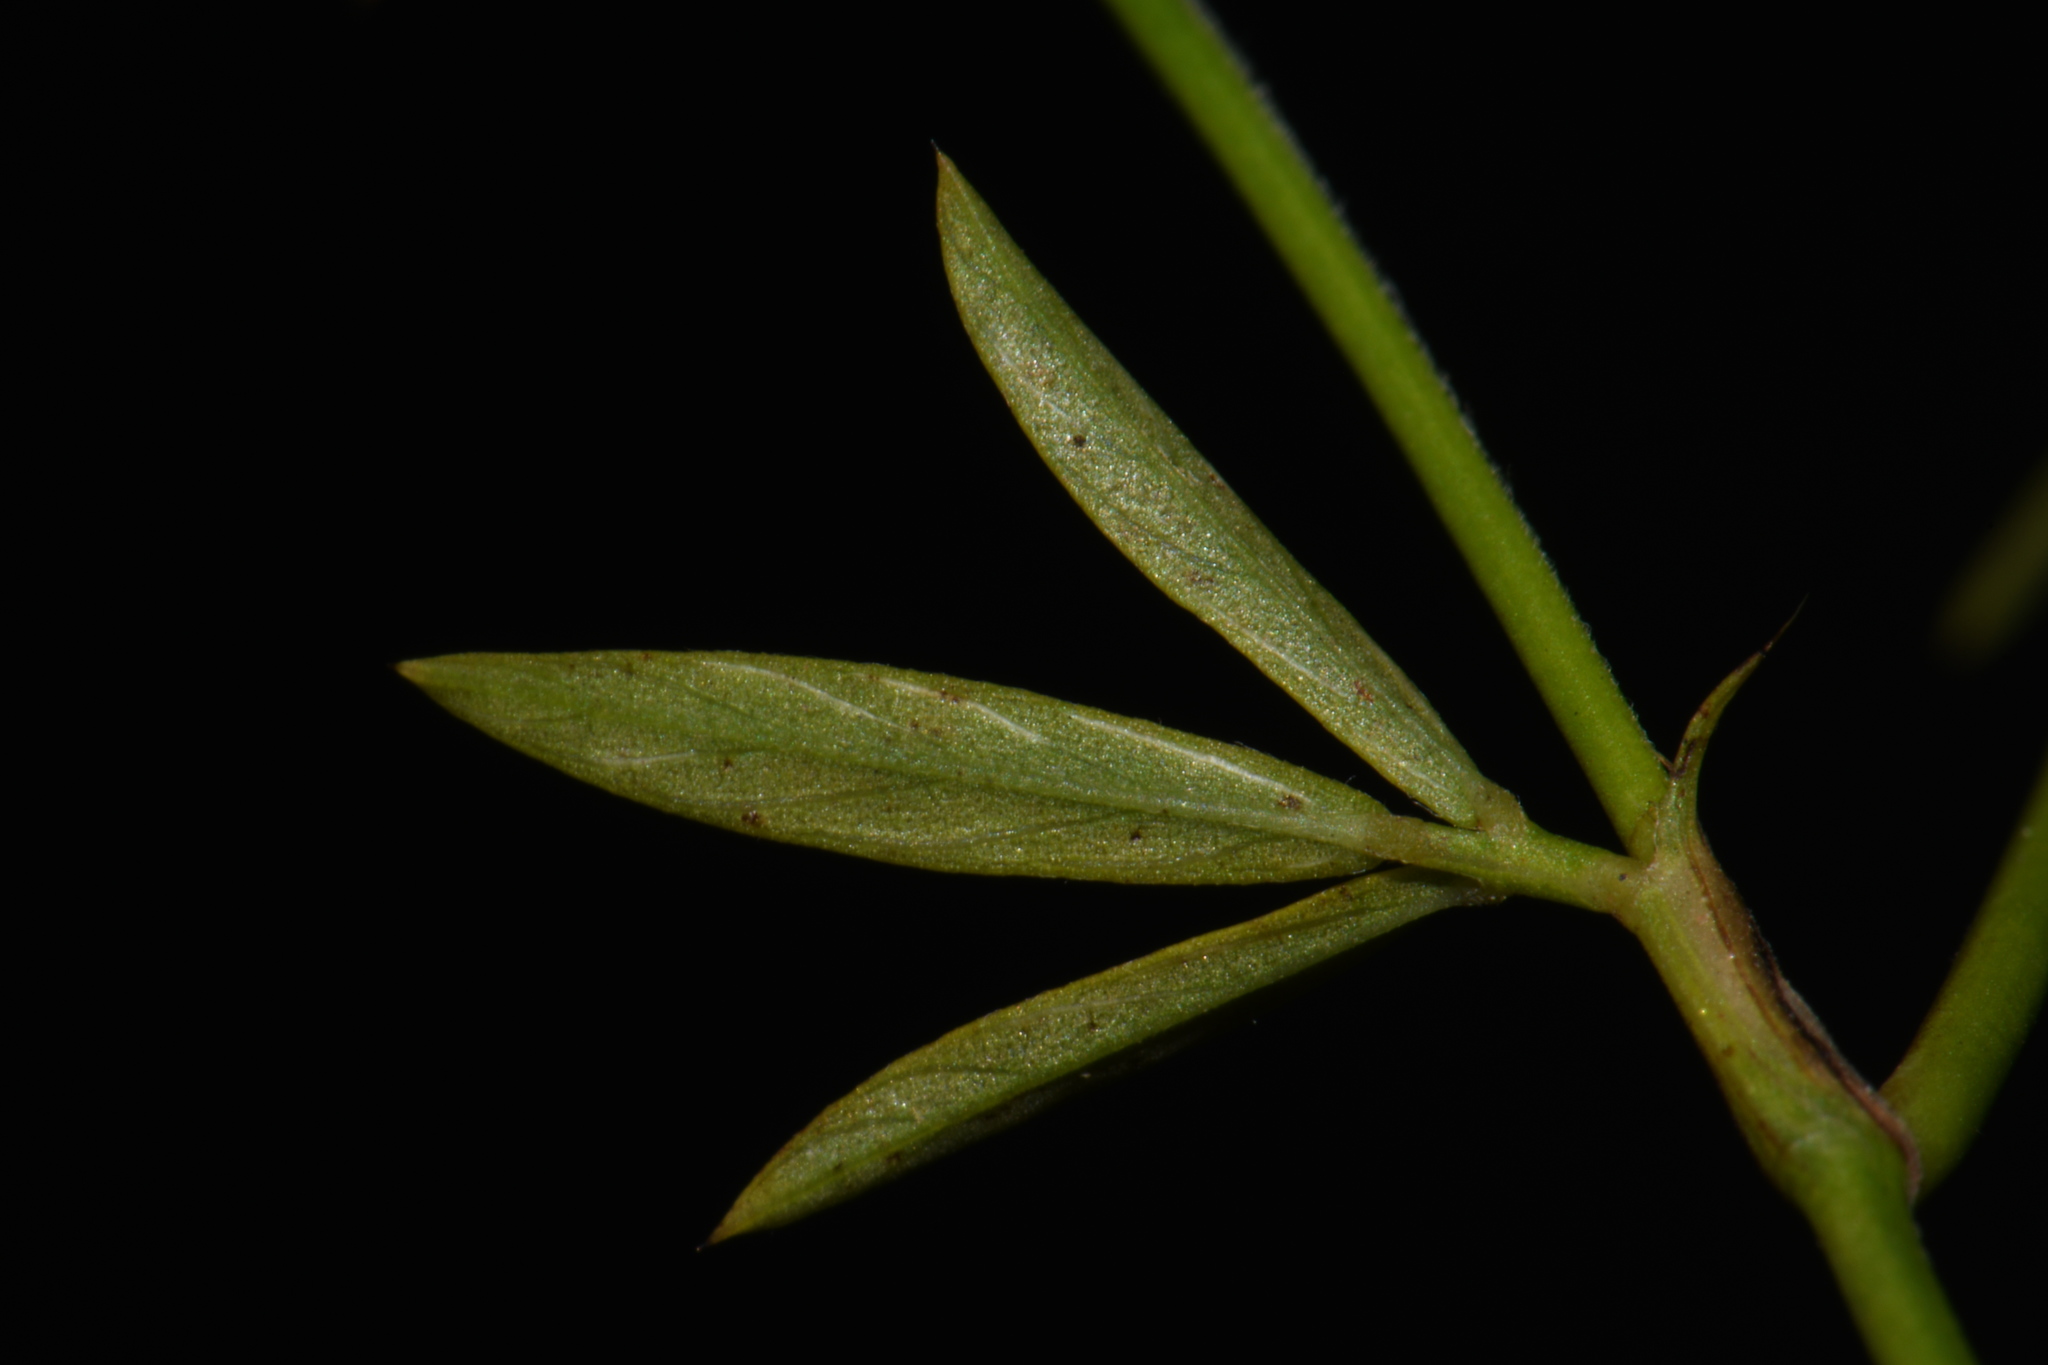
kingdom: Plantae
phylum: Tracheophyta
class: Magnoliopsida
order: Fabales
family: Fabaceae
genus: Stylosanthes
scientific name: Stylosanthes biflora
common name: Two-flower pencil-flower
